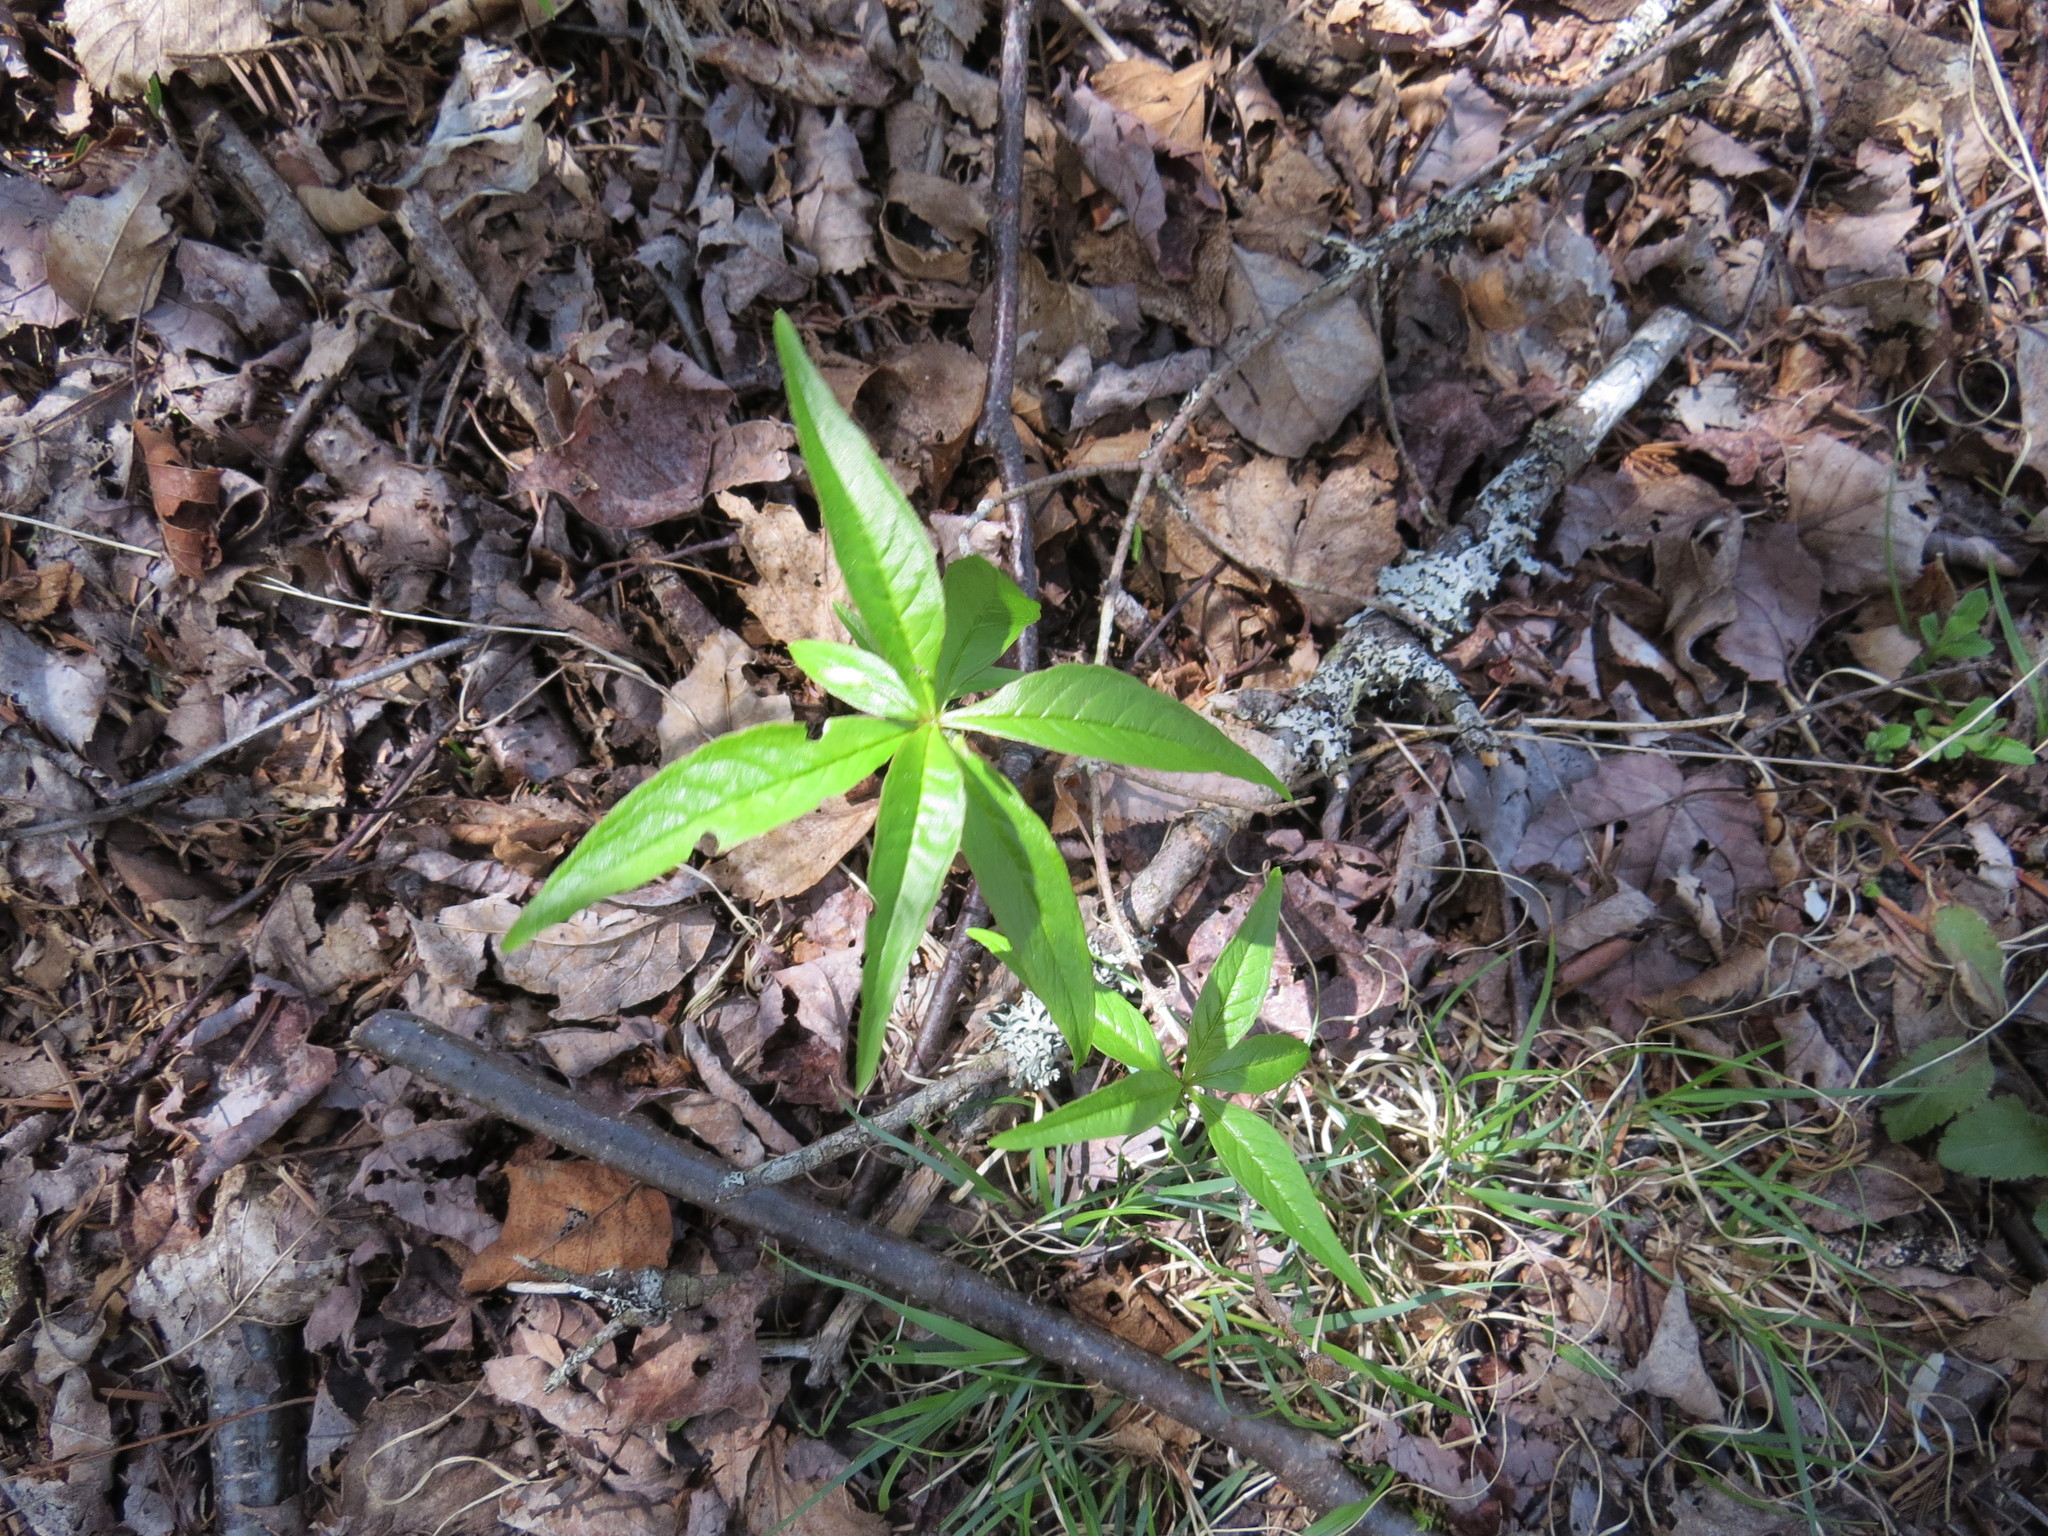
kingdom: Plantae
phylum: Tracheophyta
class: Magnoliopsida
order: Ericales
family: Primulaceae
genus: Lysimachia
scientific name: Lysimachia borealis
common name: American starflower
